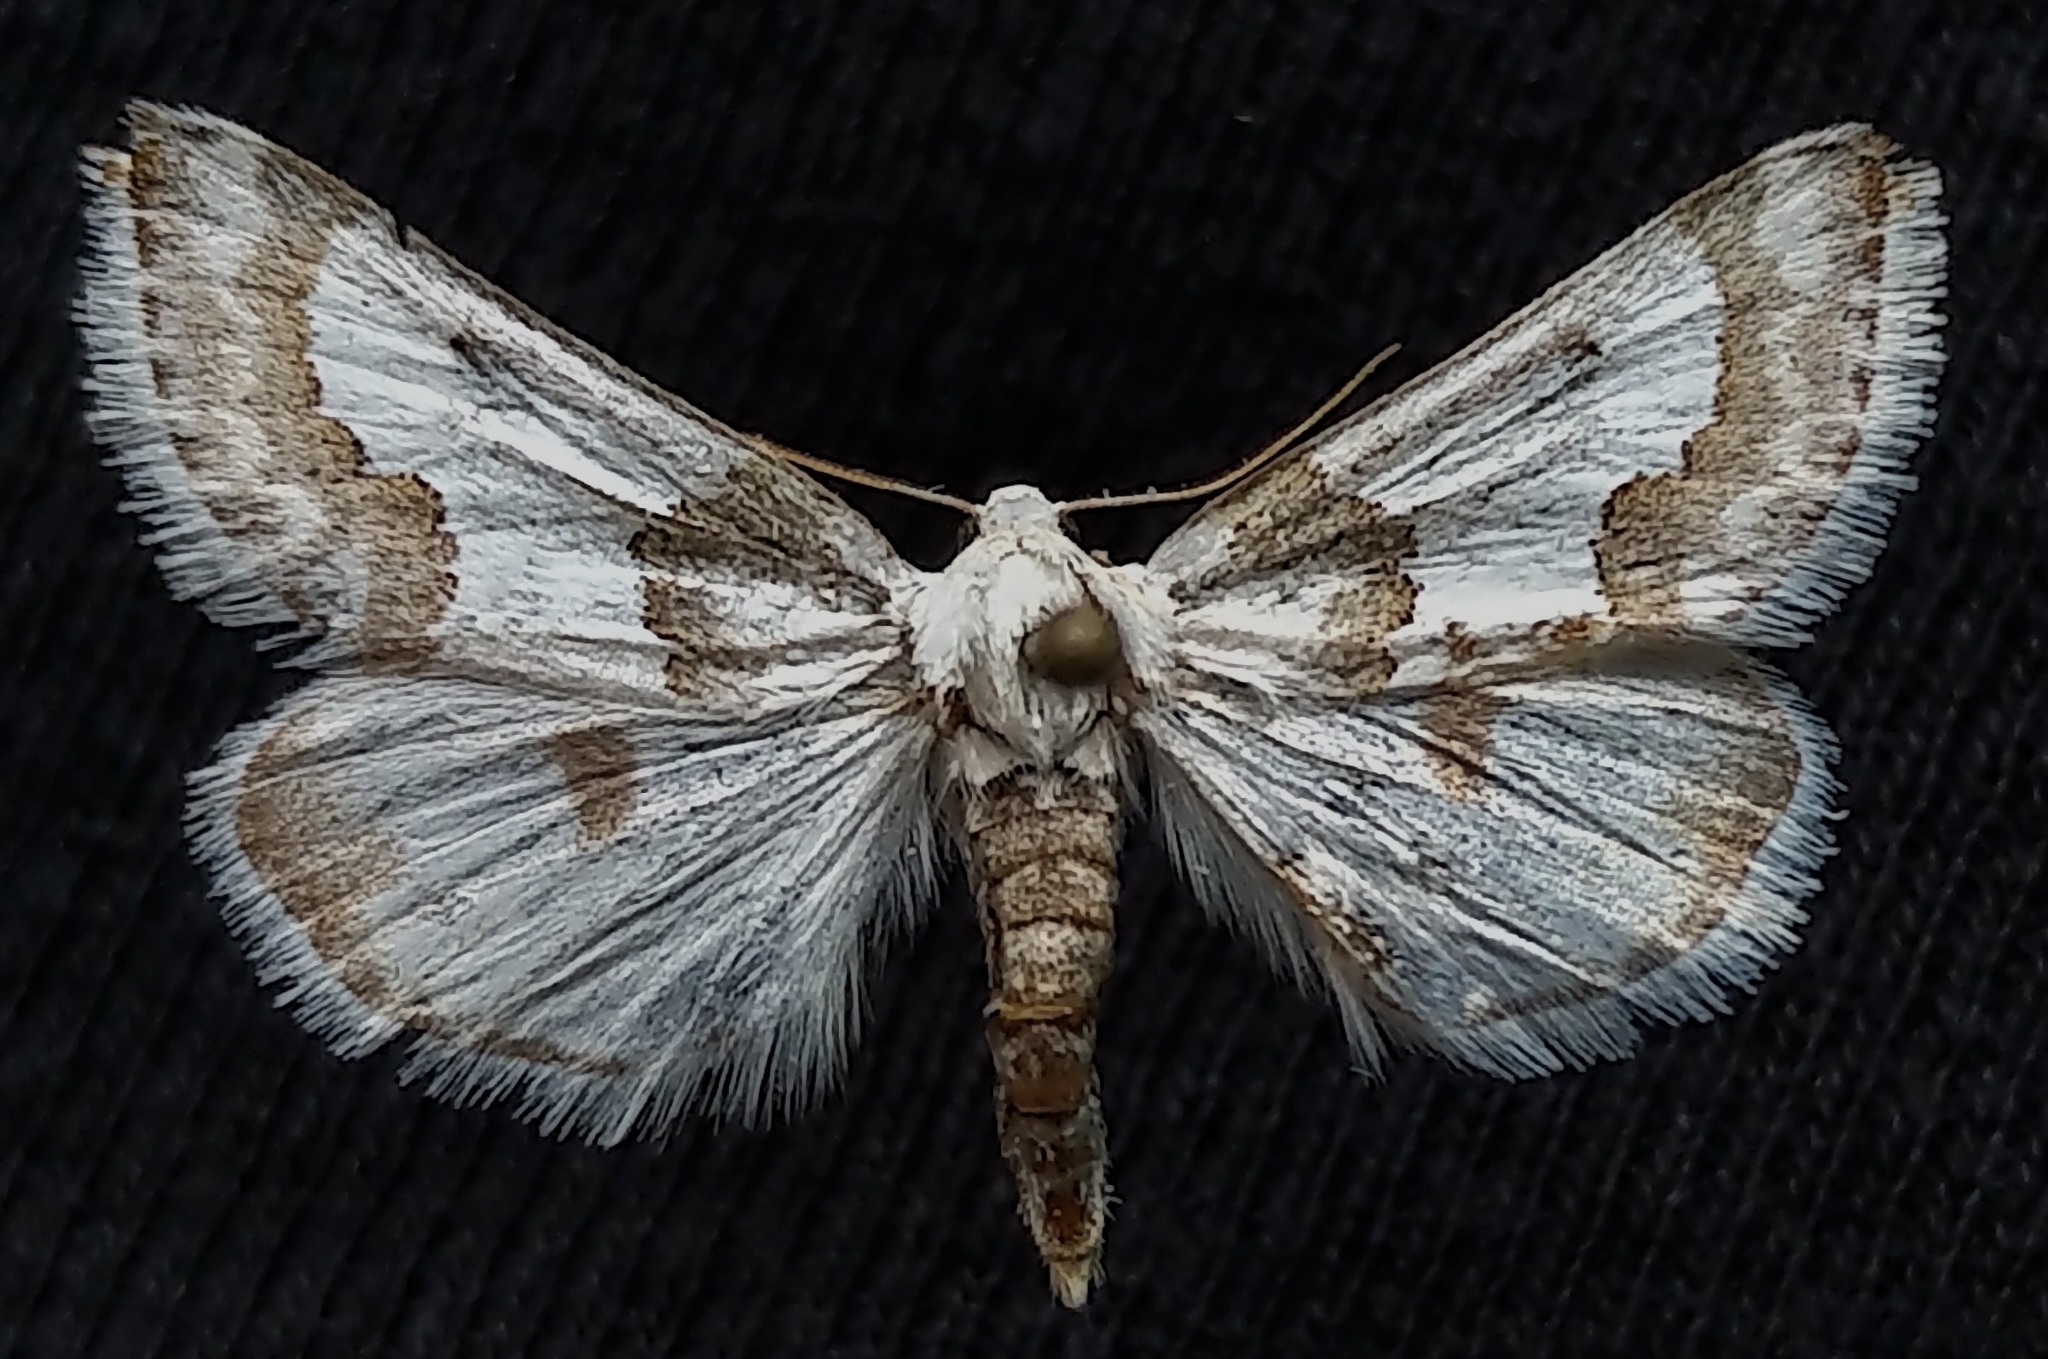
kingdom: Animalia
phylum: Arthropoda
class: Insecta
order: Lepidoptera
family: Noctuidae
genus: Schinia
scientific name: Schinia cumatilis
